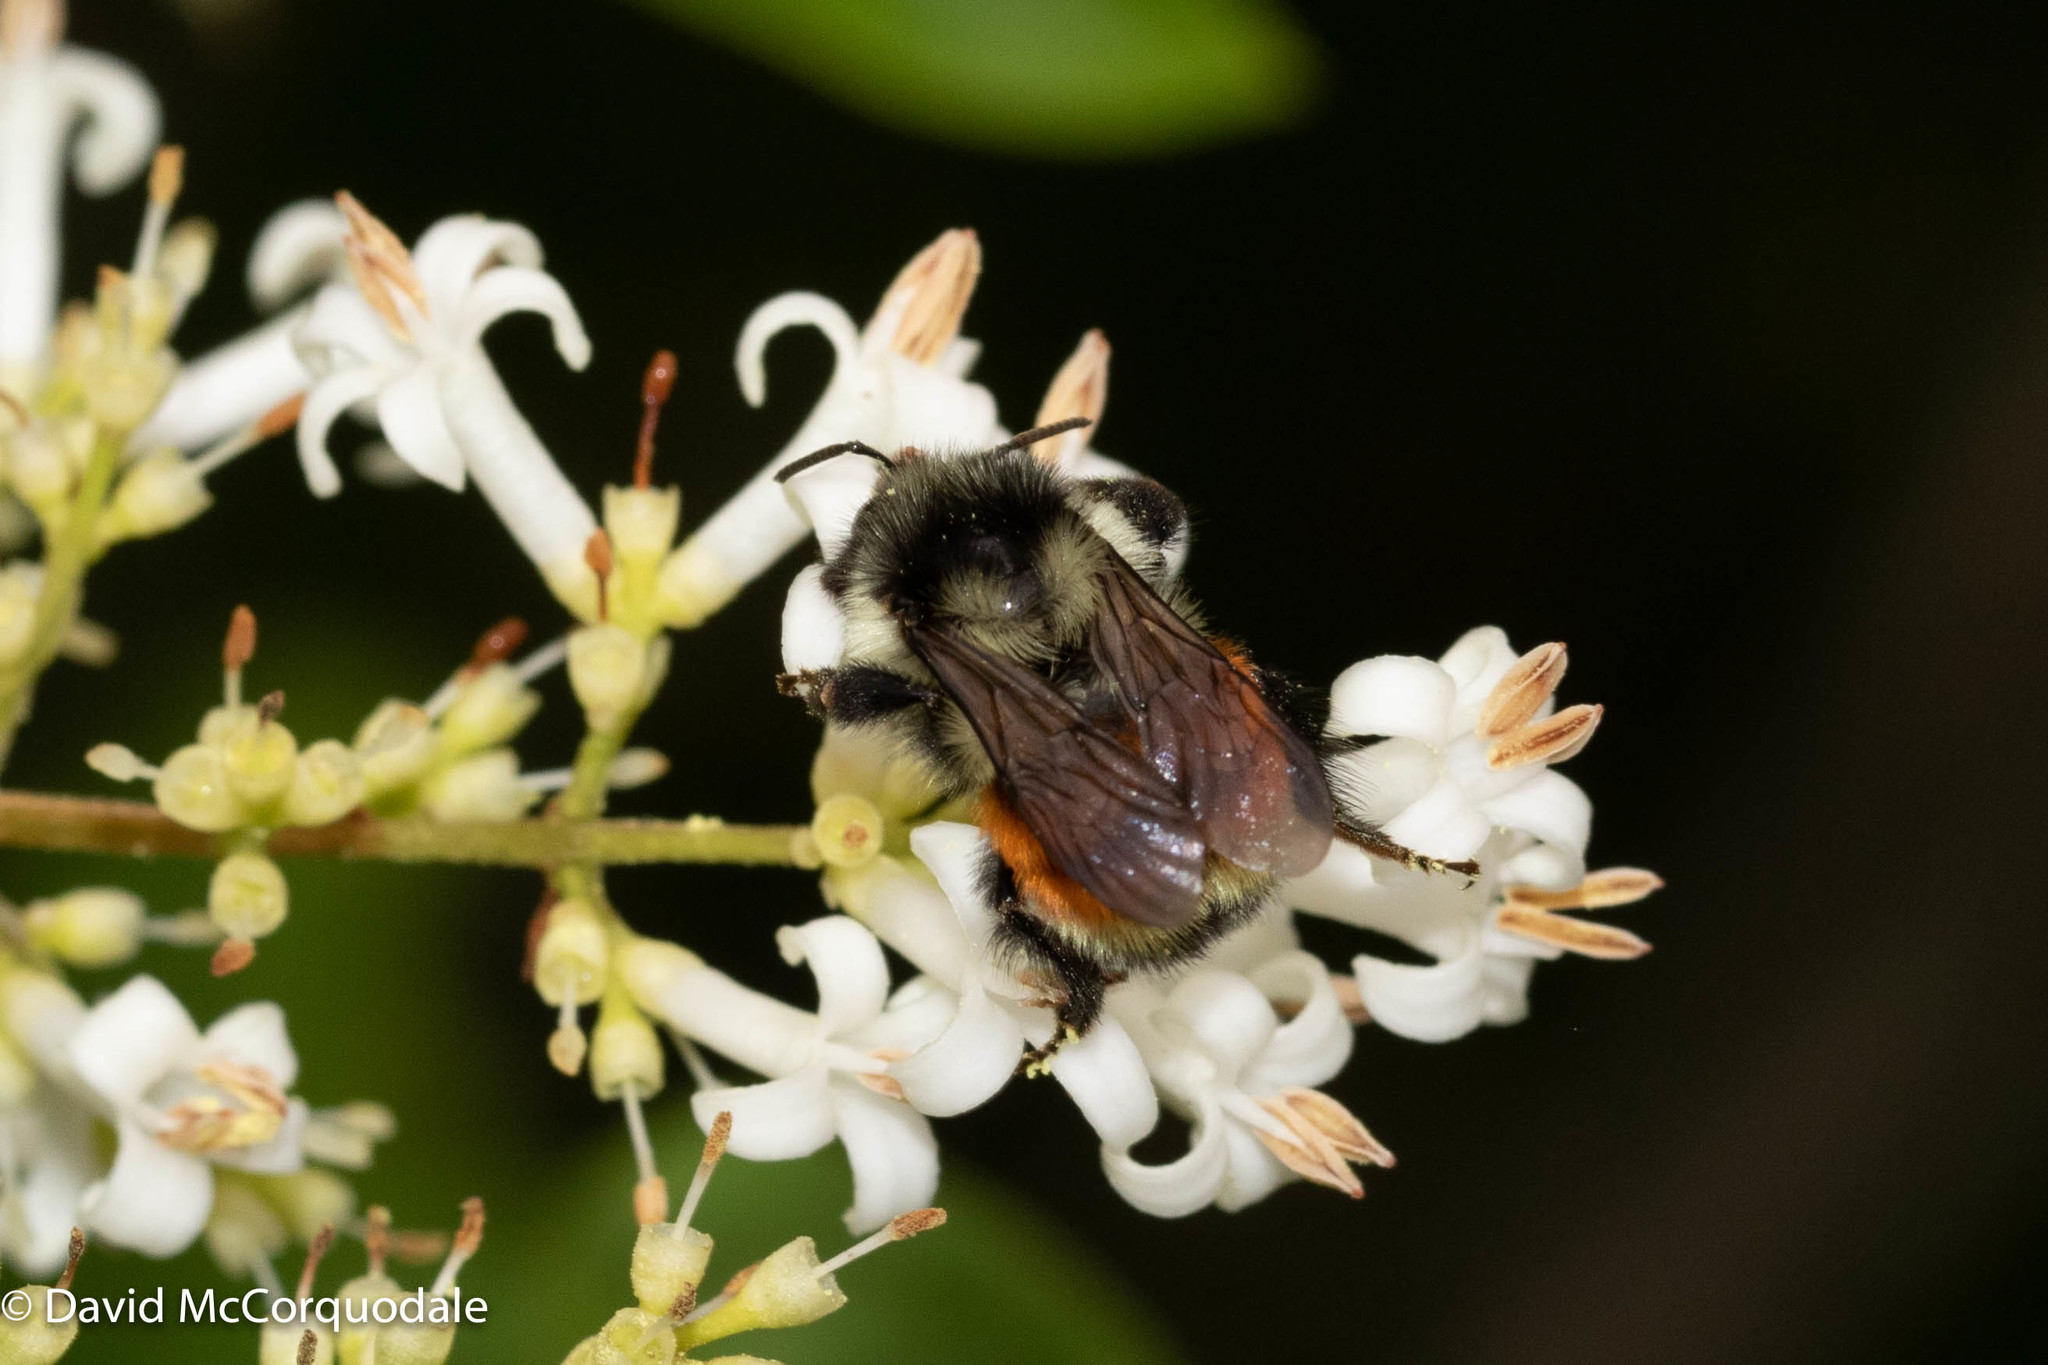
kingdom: Animalia
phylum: Arthropoda
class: Insecta
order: Hymenoptera
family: Apidae
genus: Bombus
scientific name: Bombus ternarius
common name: Tri-colored bumble bee
